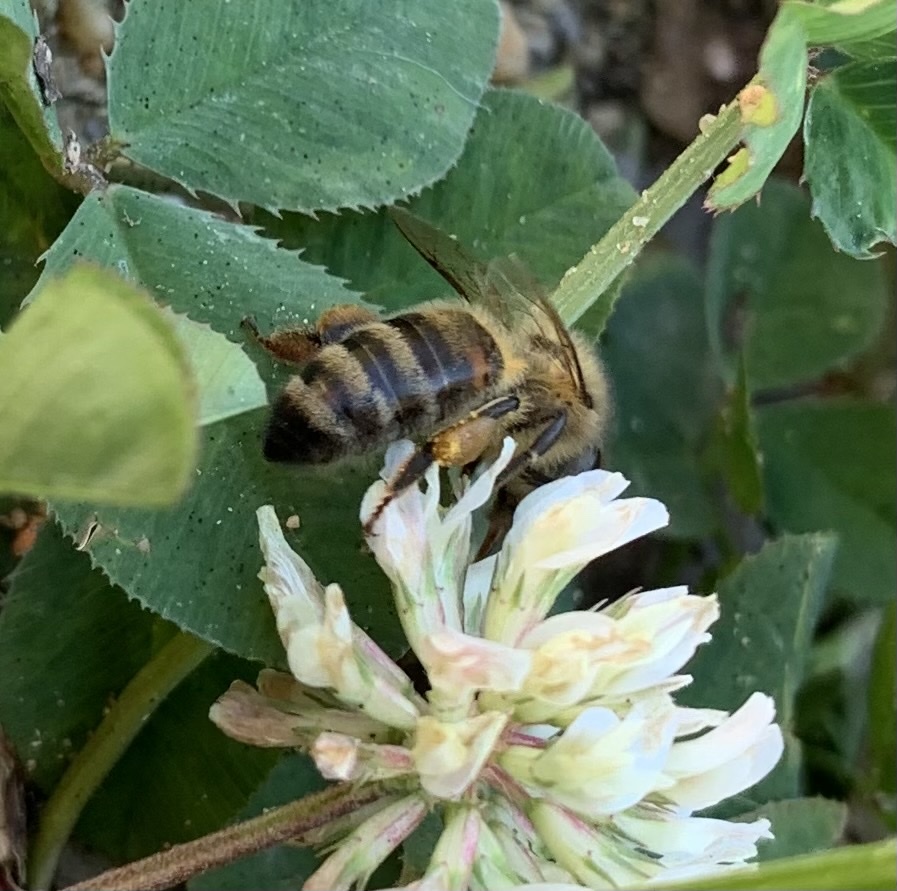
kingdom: Animalia
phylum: Arthropoda
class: Insecta
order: Hymenoptera
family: Apidae
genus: Apis
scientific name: Apis mellifera
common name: Honey bee
